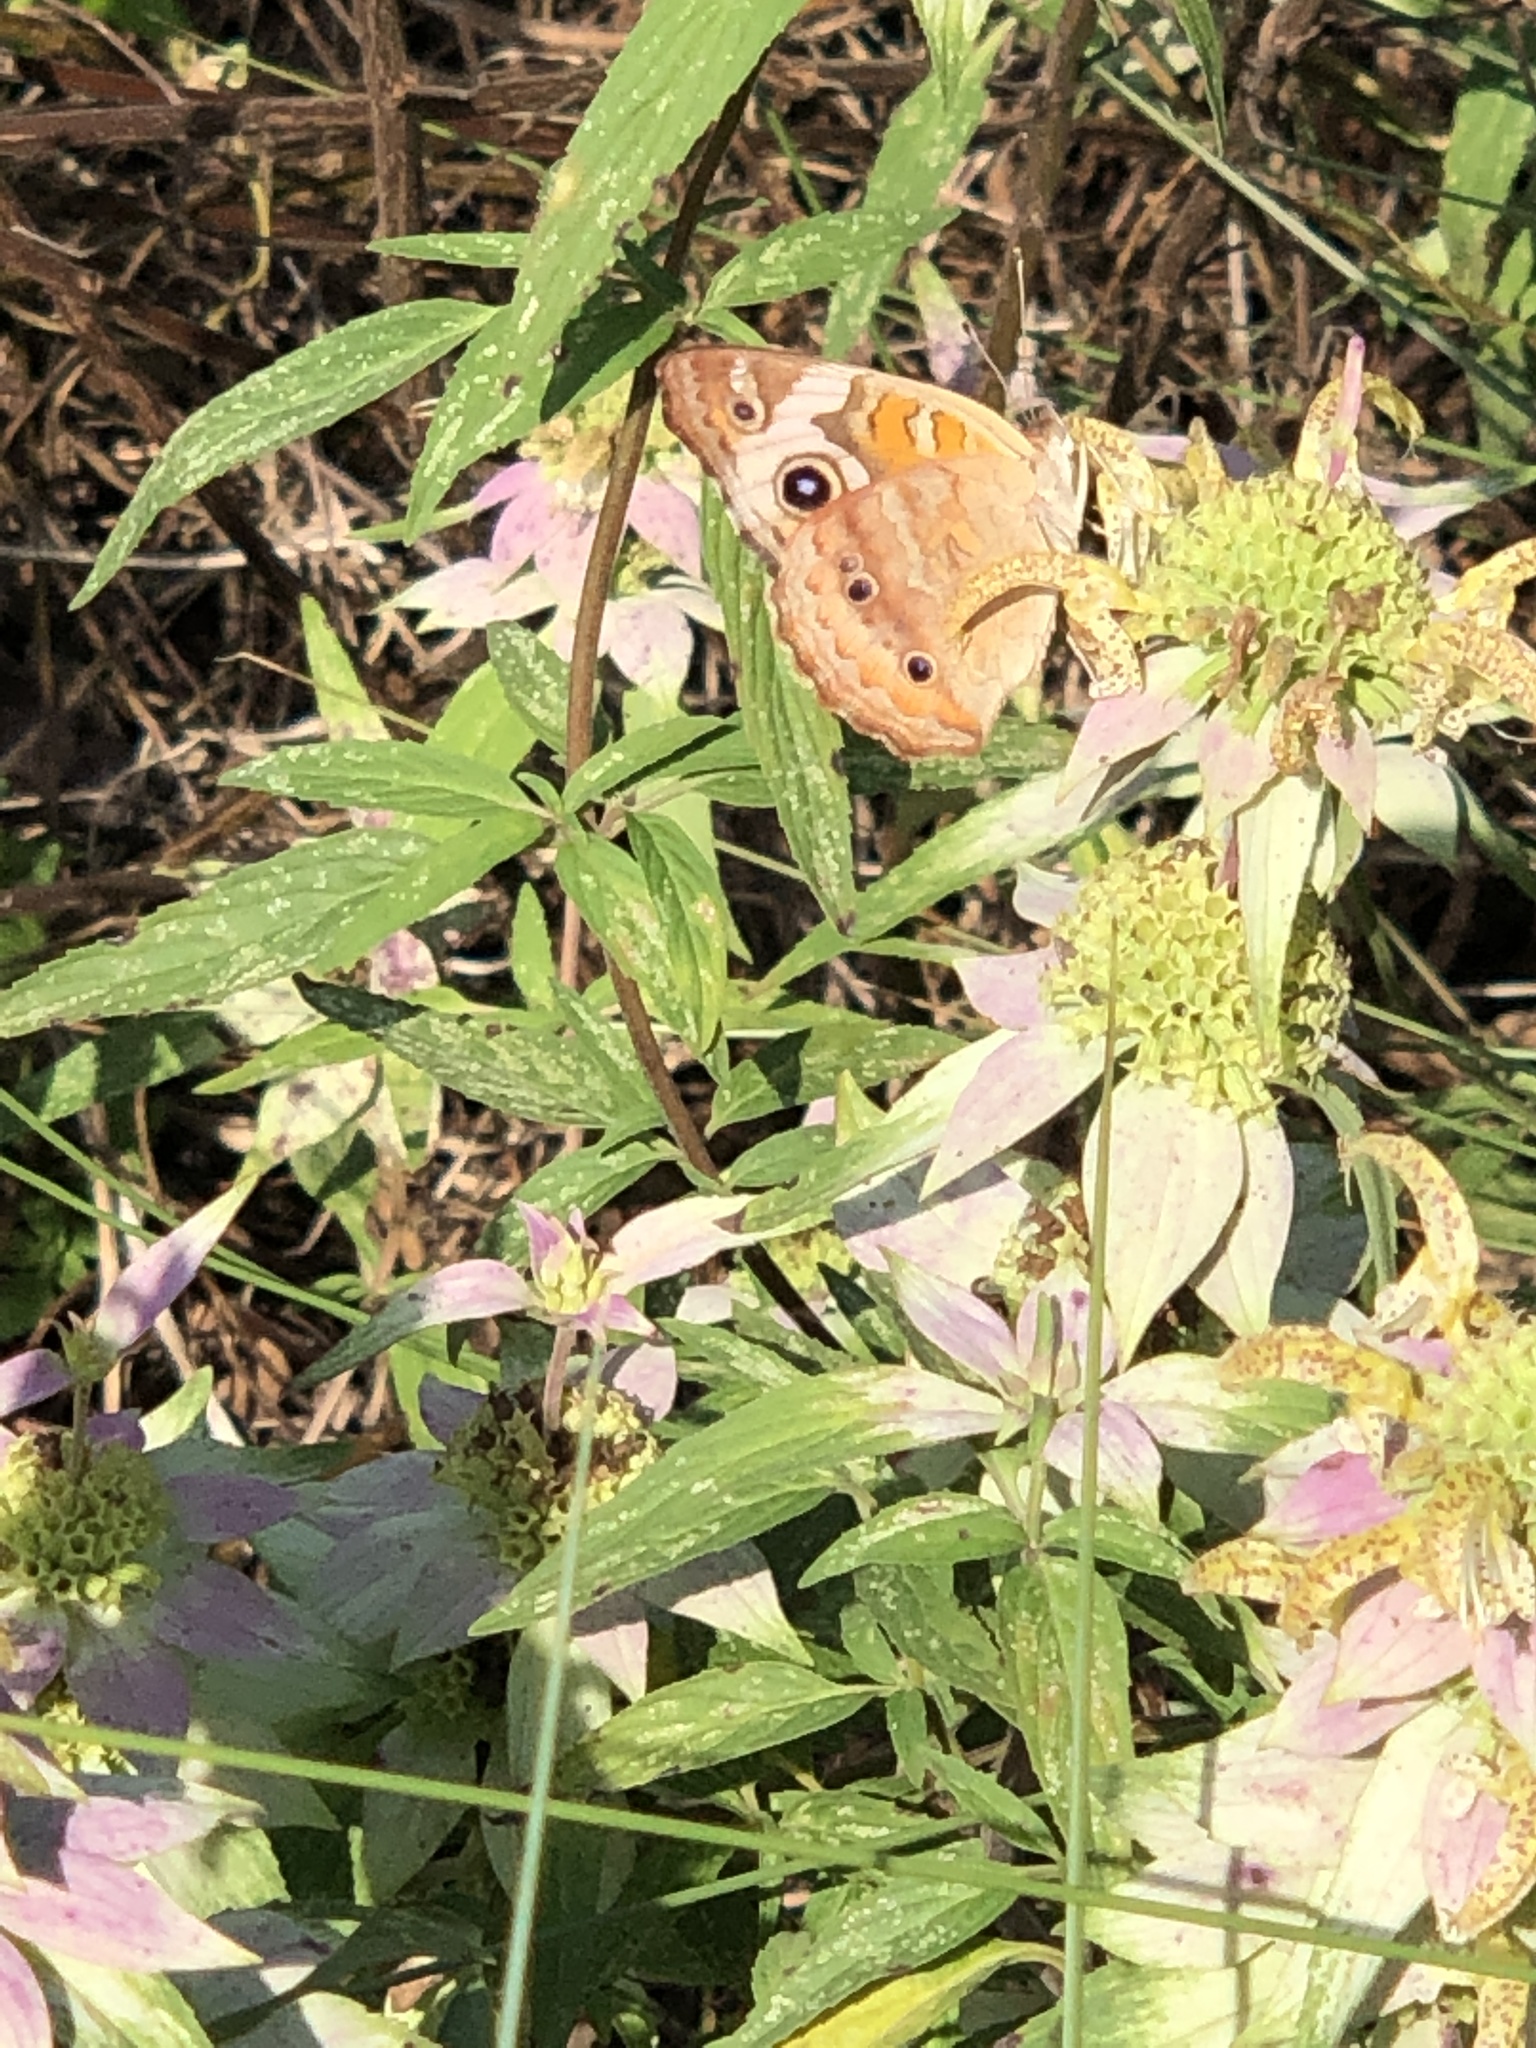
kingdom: Animalia
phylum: Arthropoda
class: Insecta
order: Lepidoptera
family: Nymphalidae
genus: Junonia
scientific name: Junonia coenia
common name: Common buckeye
